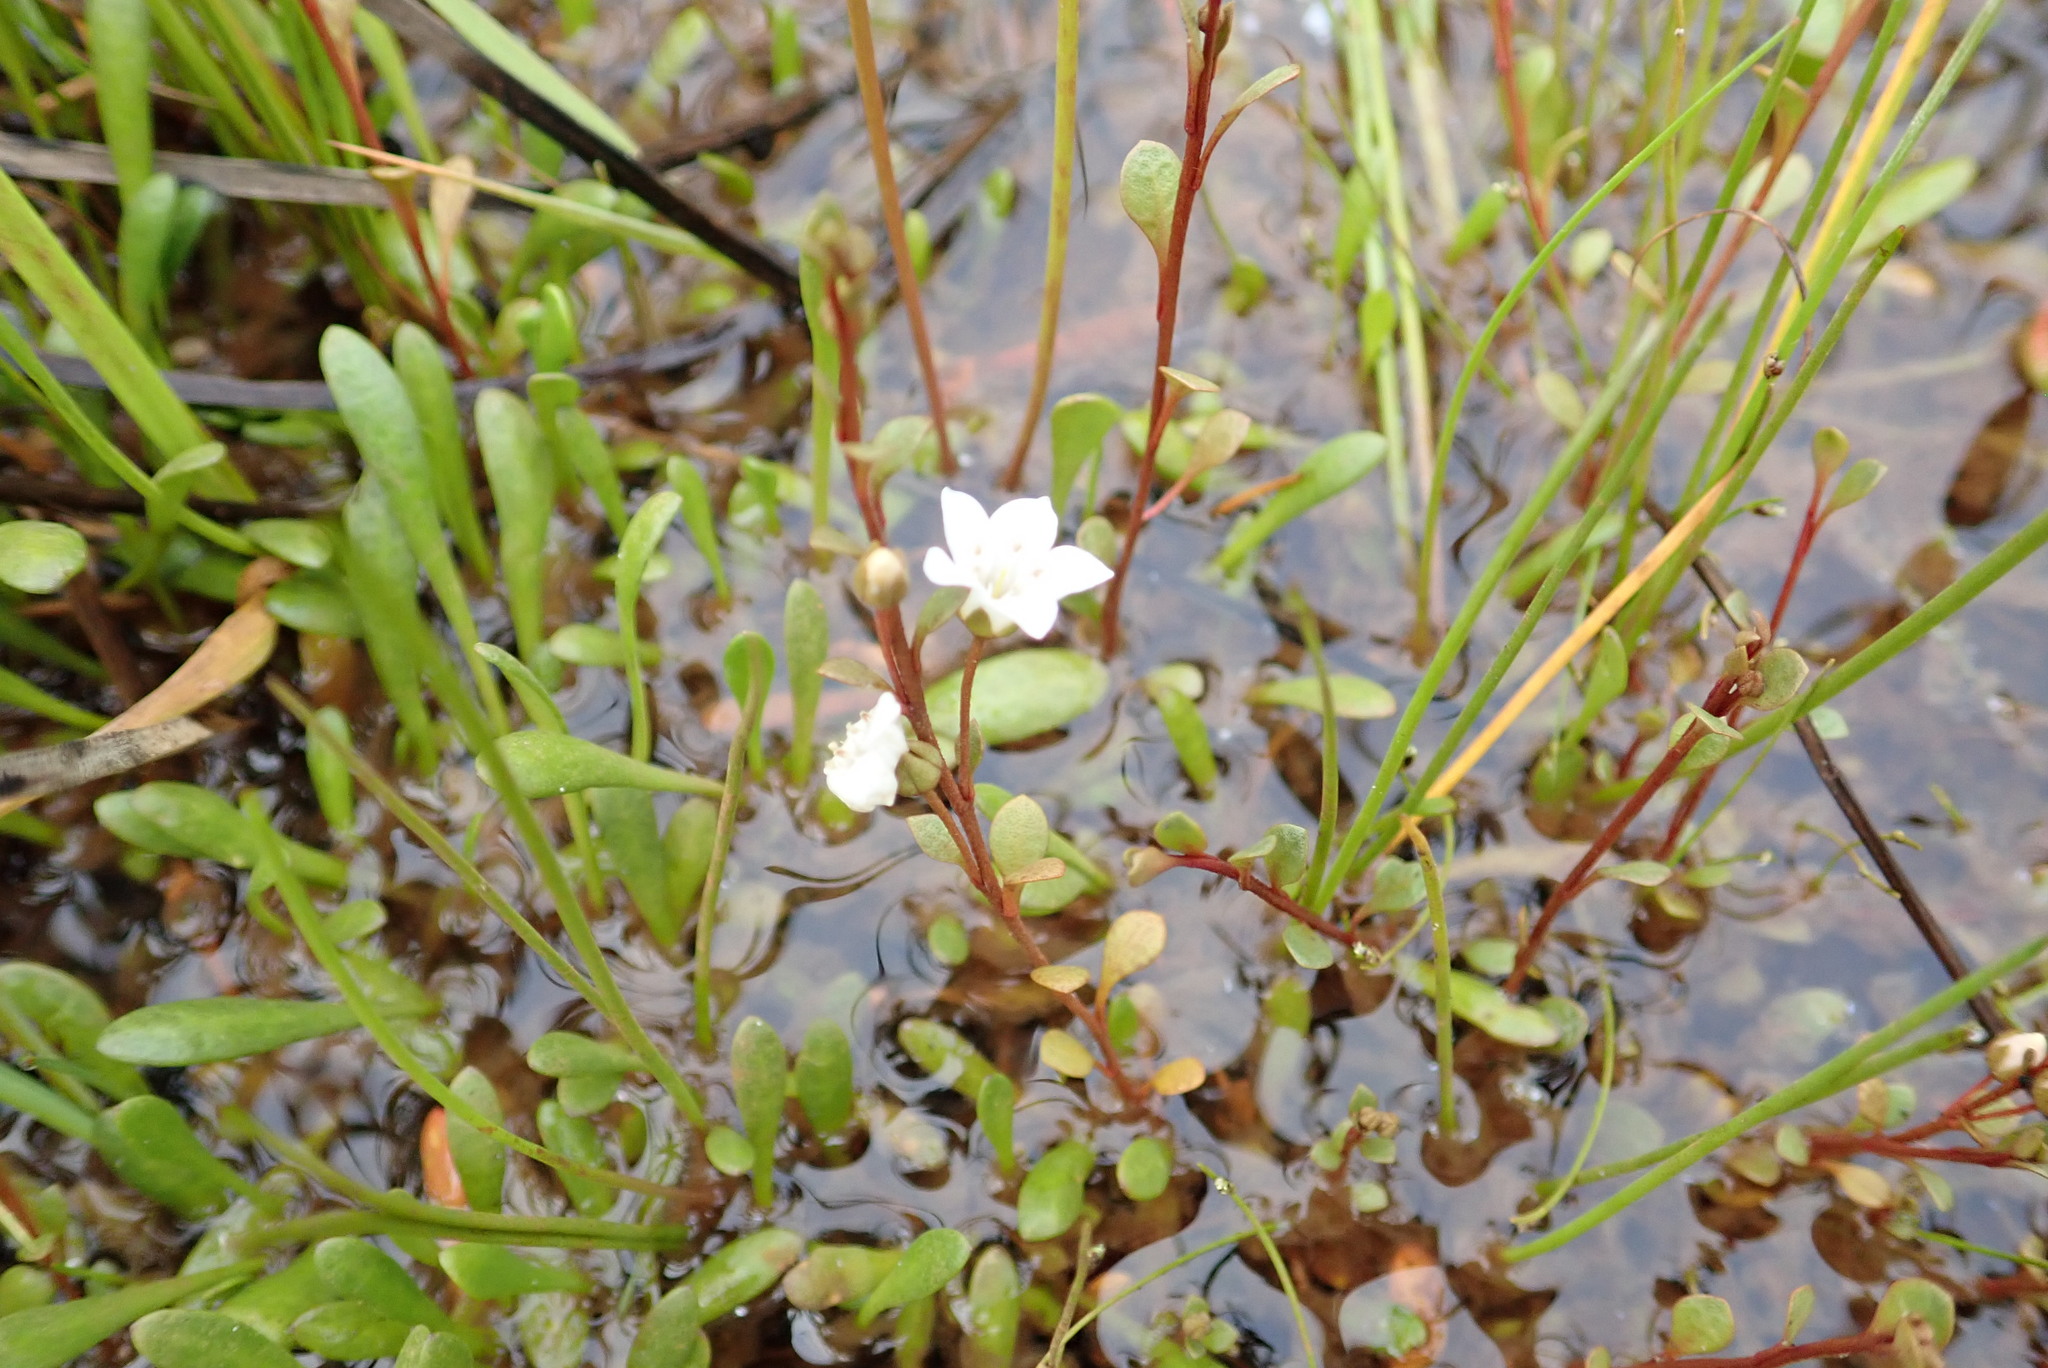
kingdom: Plantae
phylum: Tracheophyta
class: Magnoliopsida
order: Ericales
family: Primulaceae
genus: Samolus
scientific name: Samolus repens
